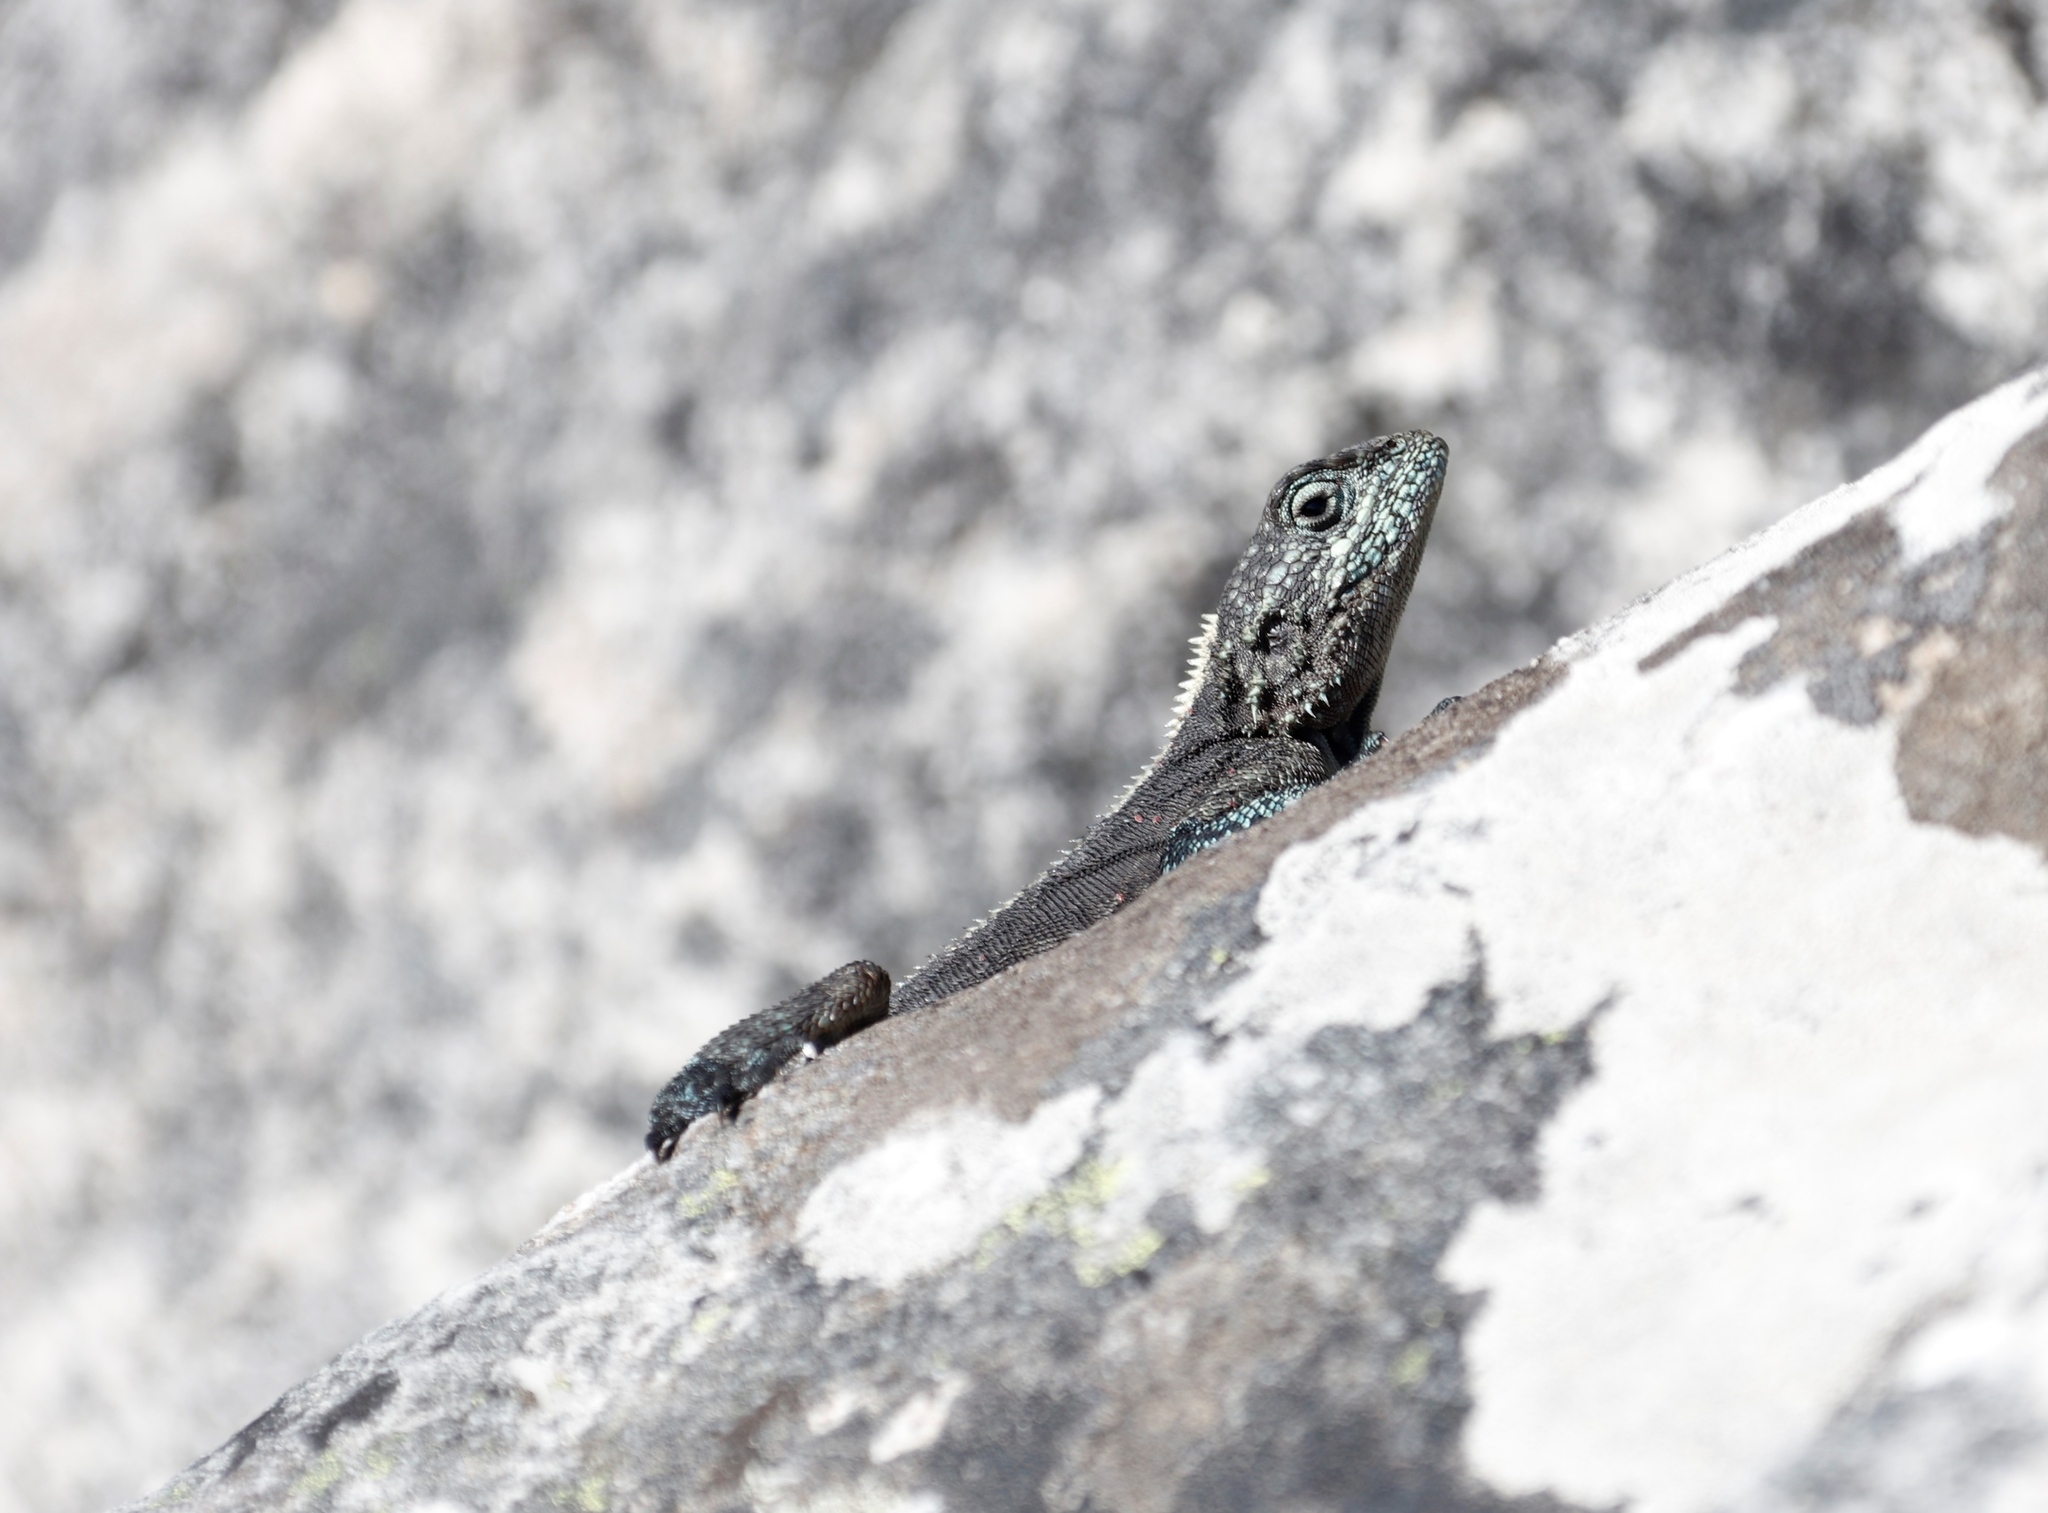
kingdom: Animalia
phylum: Chordata
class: Squamata
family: Agamidae
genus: Agama
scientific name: Agama atra
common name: Southern african rock agama
